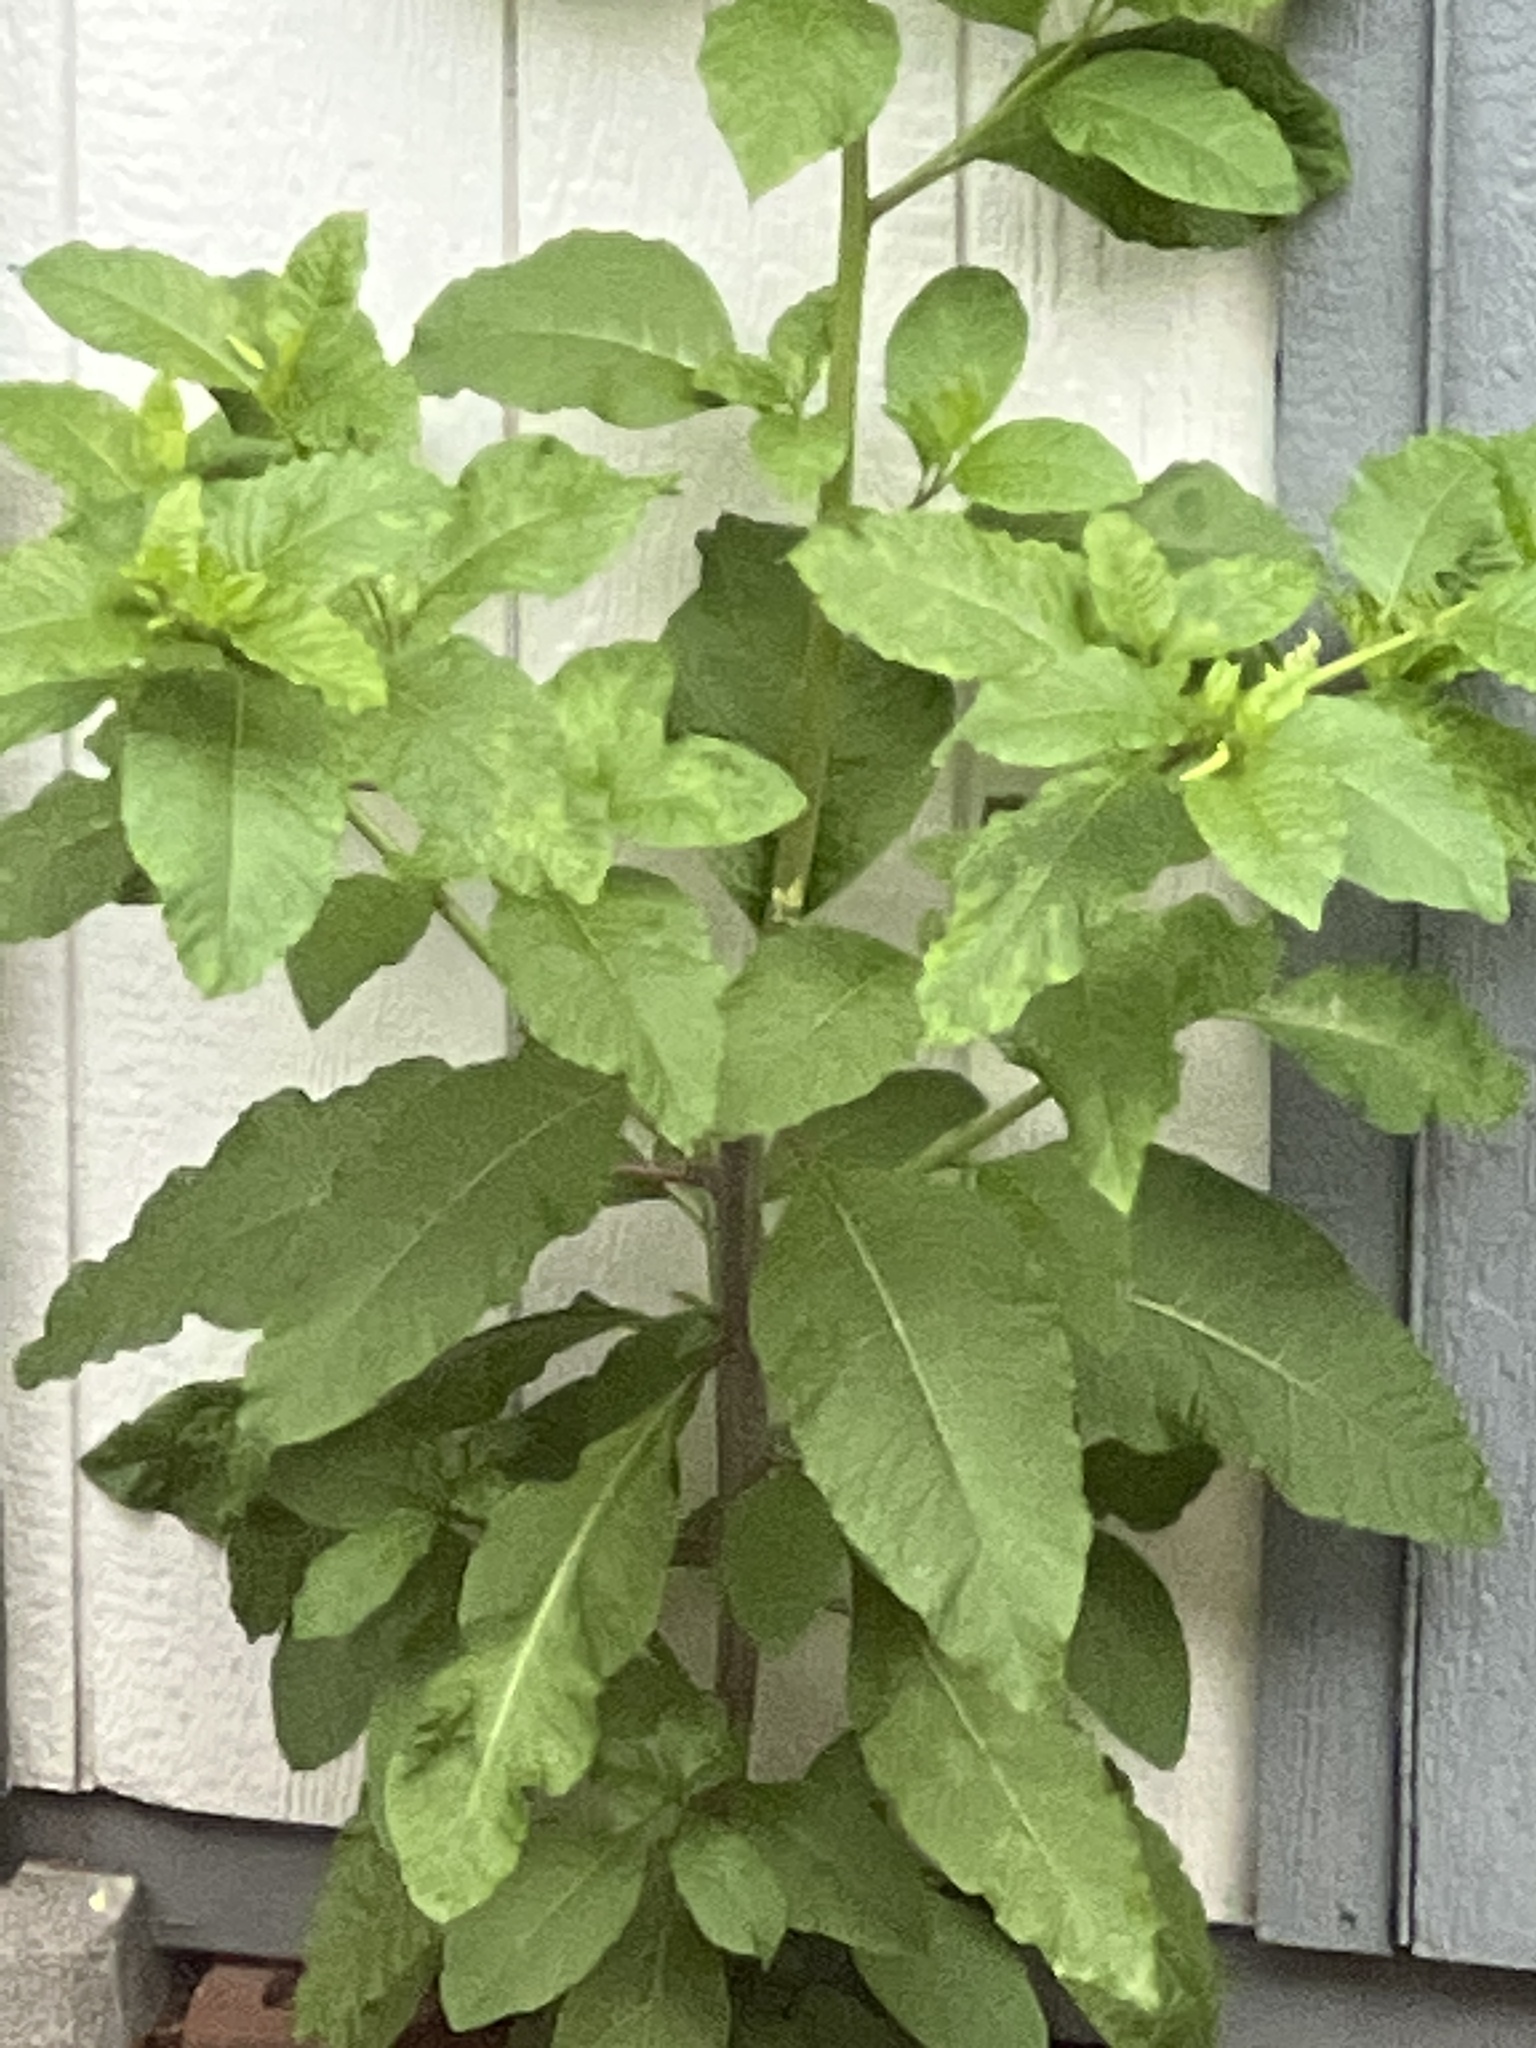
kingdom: Plantae
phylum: Tracheophyta
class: Magnoliopsida
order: Caryophyllales
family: Phytolaccaceae
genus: Phytolacca
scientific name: Phytolacca americana
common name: American pokeweed
